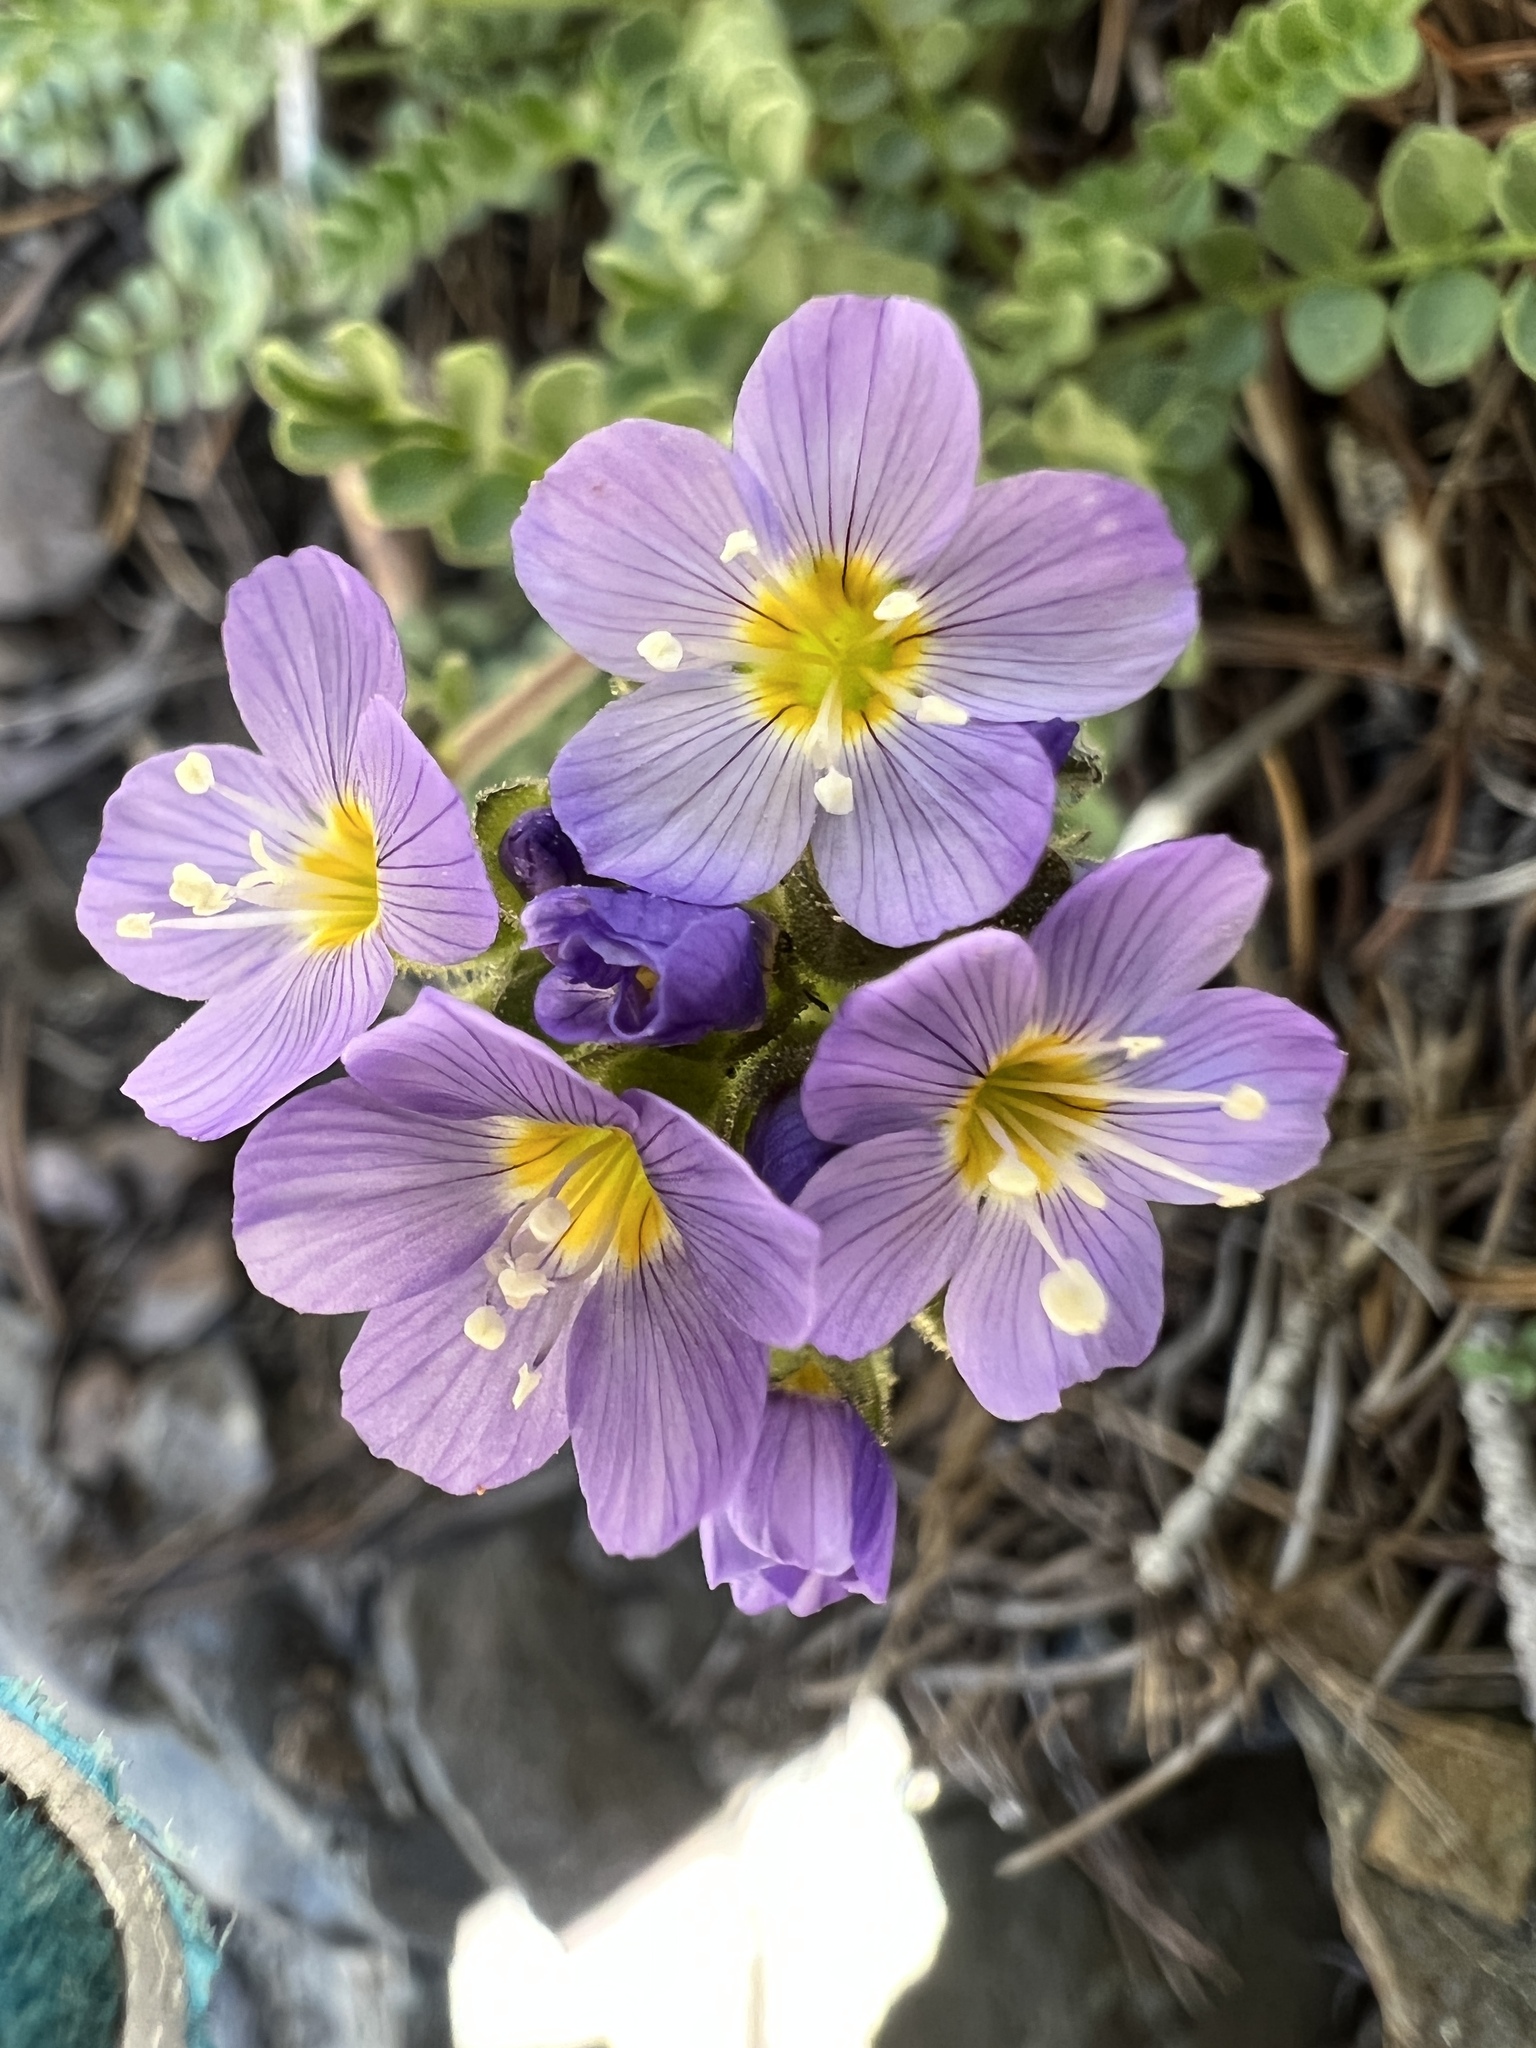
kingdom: Plantae
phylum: Tracheophyta
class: Magnoliopsida
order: Ericales
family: Polemoniaceae
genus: Polemonium
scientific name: Polemonium pulcherrimum
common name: Short jacob's-ladder
